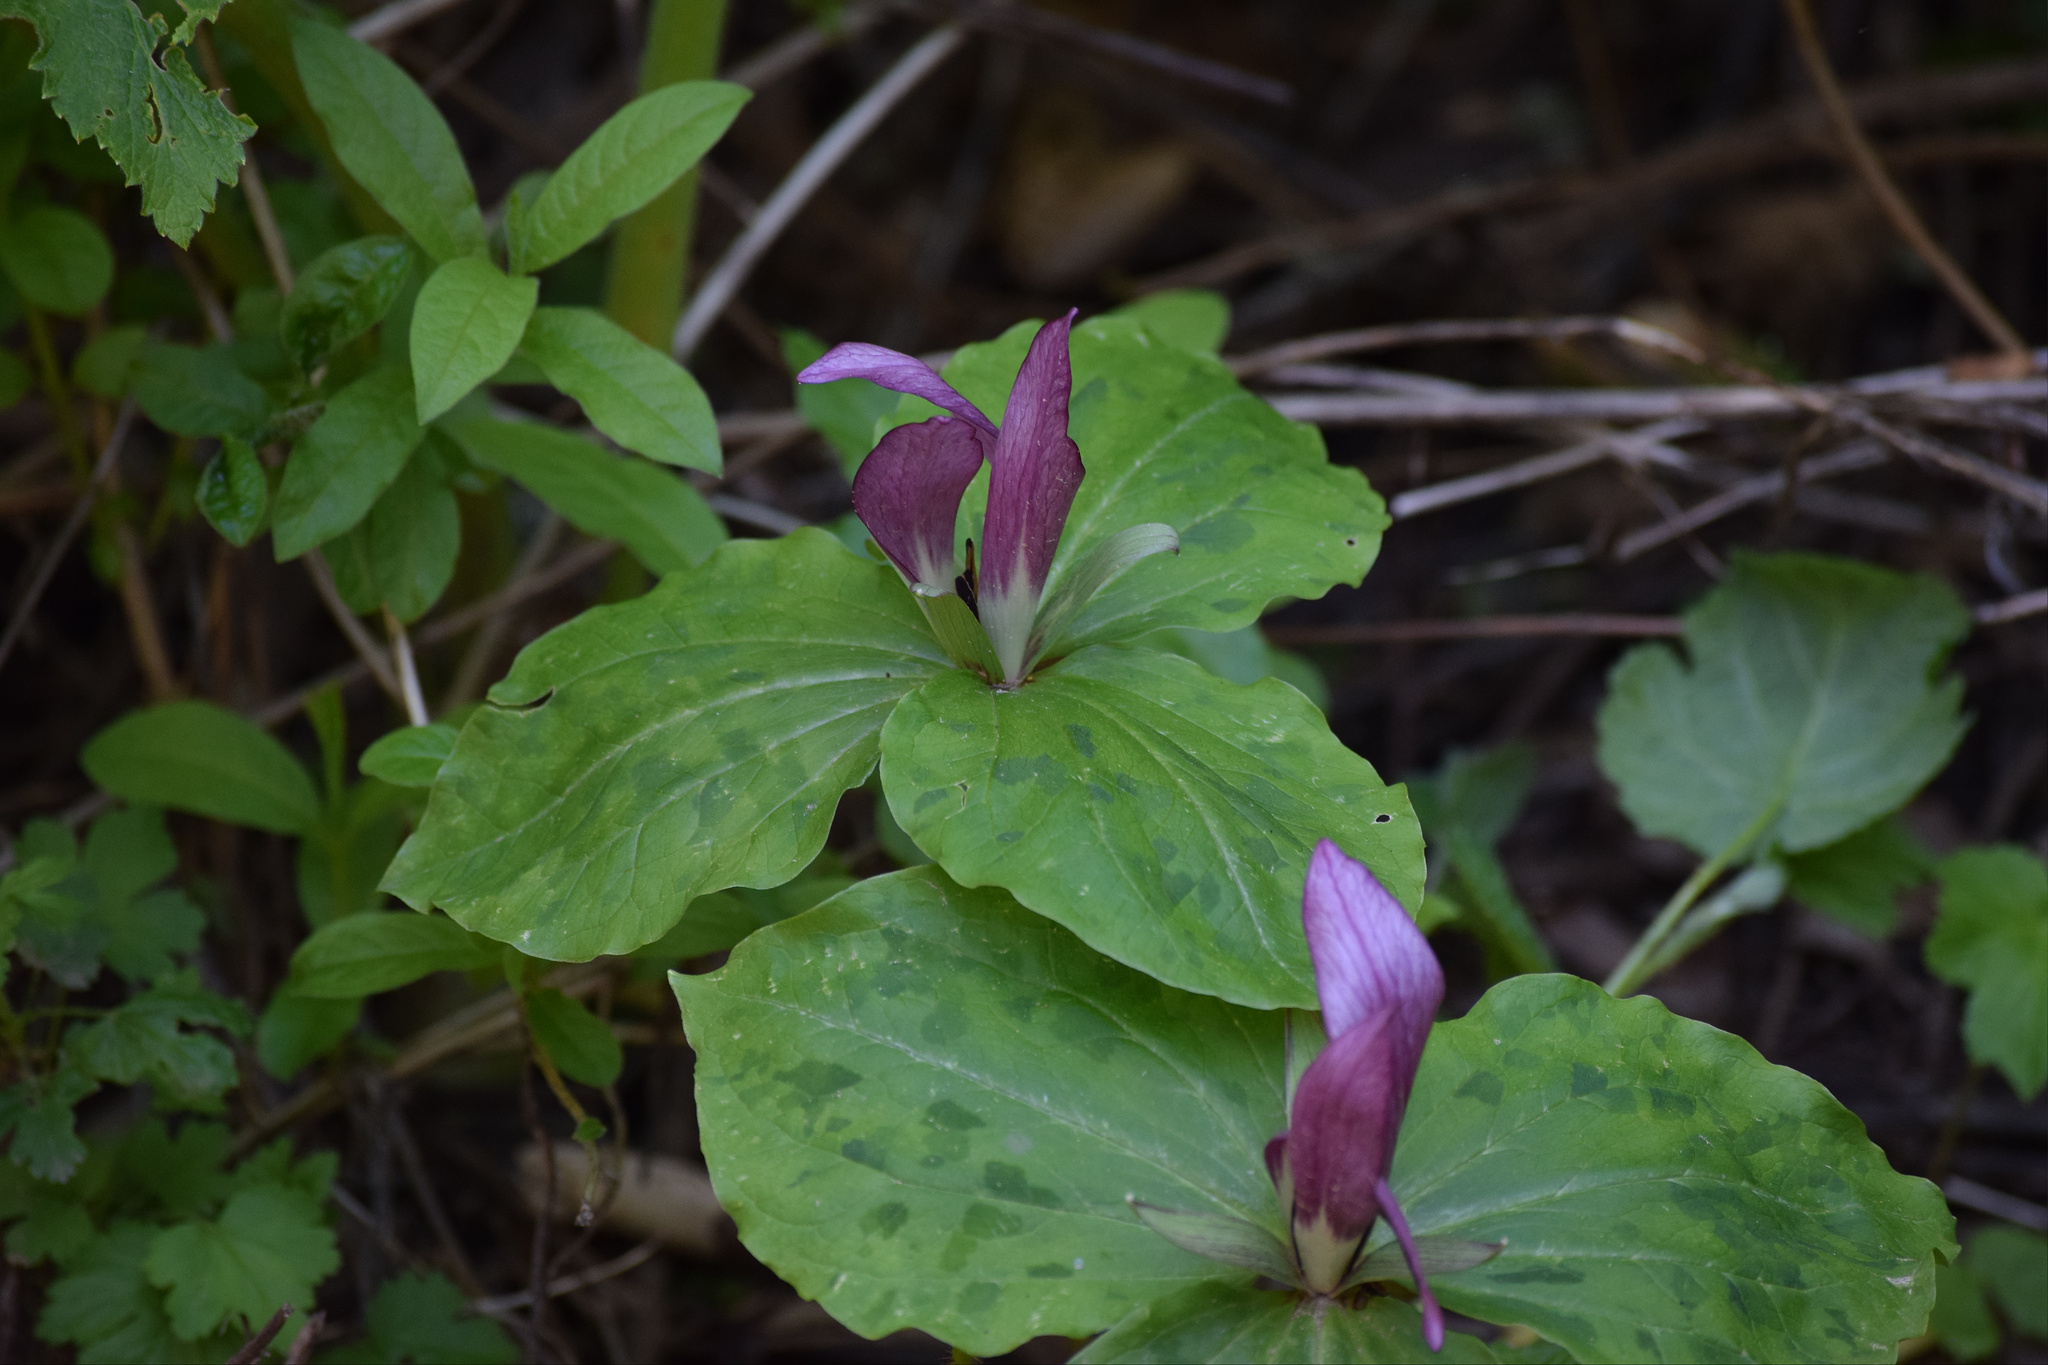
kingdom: Plantae
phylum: Tracheophyta
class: Liliopsida
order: Liliales
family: Melanthiaceae
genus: Trillium
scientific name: Trillium chloropetalum
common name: Giant trillium
